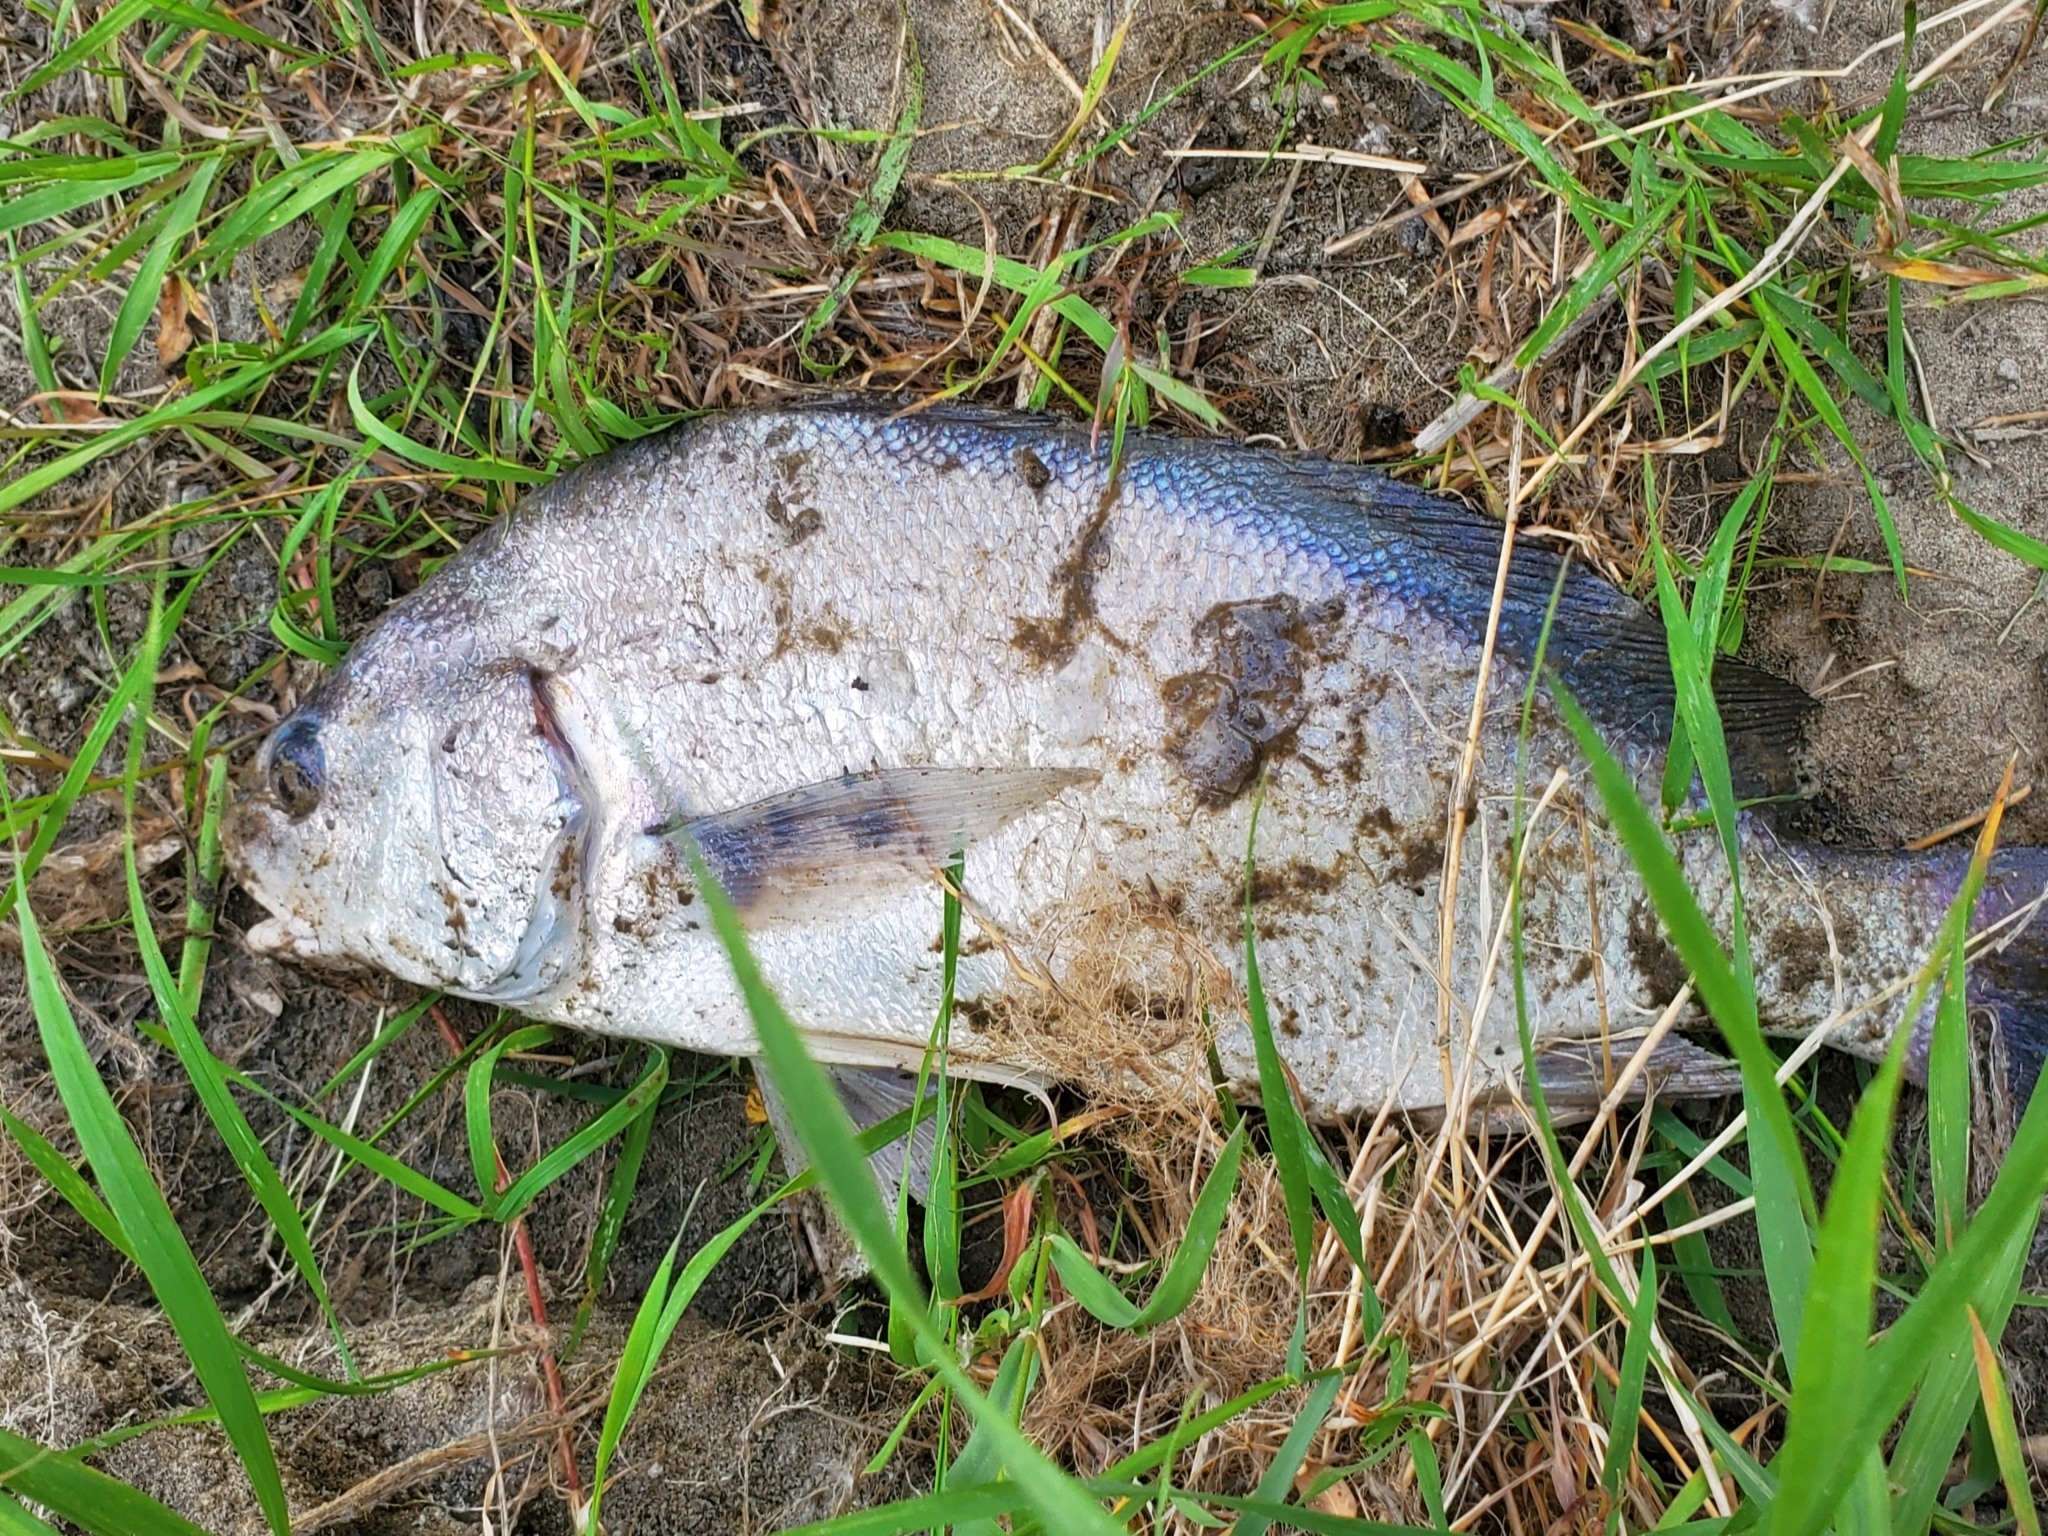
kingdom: Animalia
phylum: Chordata
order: Perciformes
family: Sciaenidae
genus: Aplodinotus
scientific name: Aplodinotus grunniens
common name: Freshwater drum
